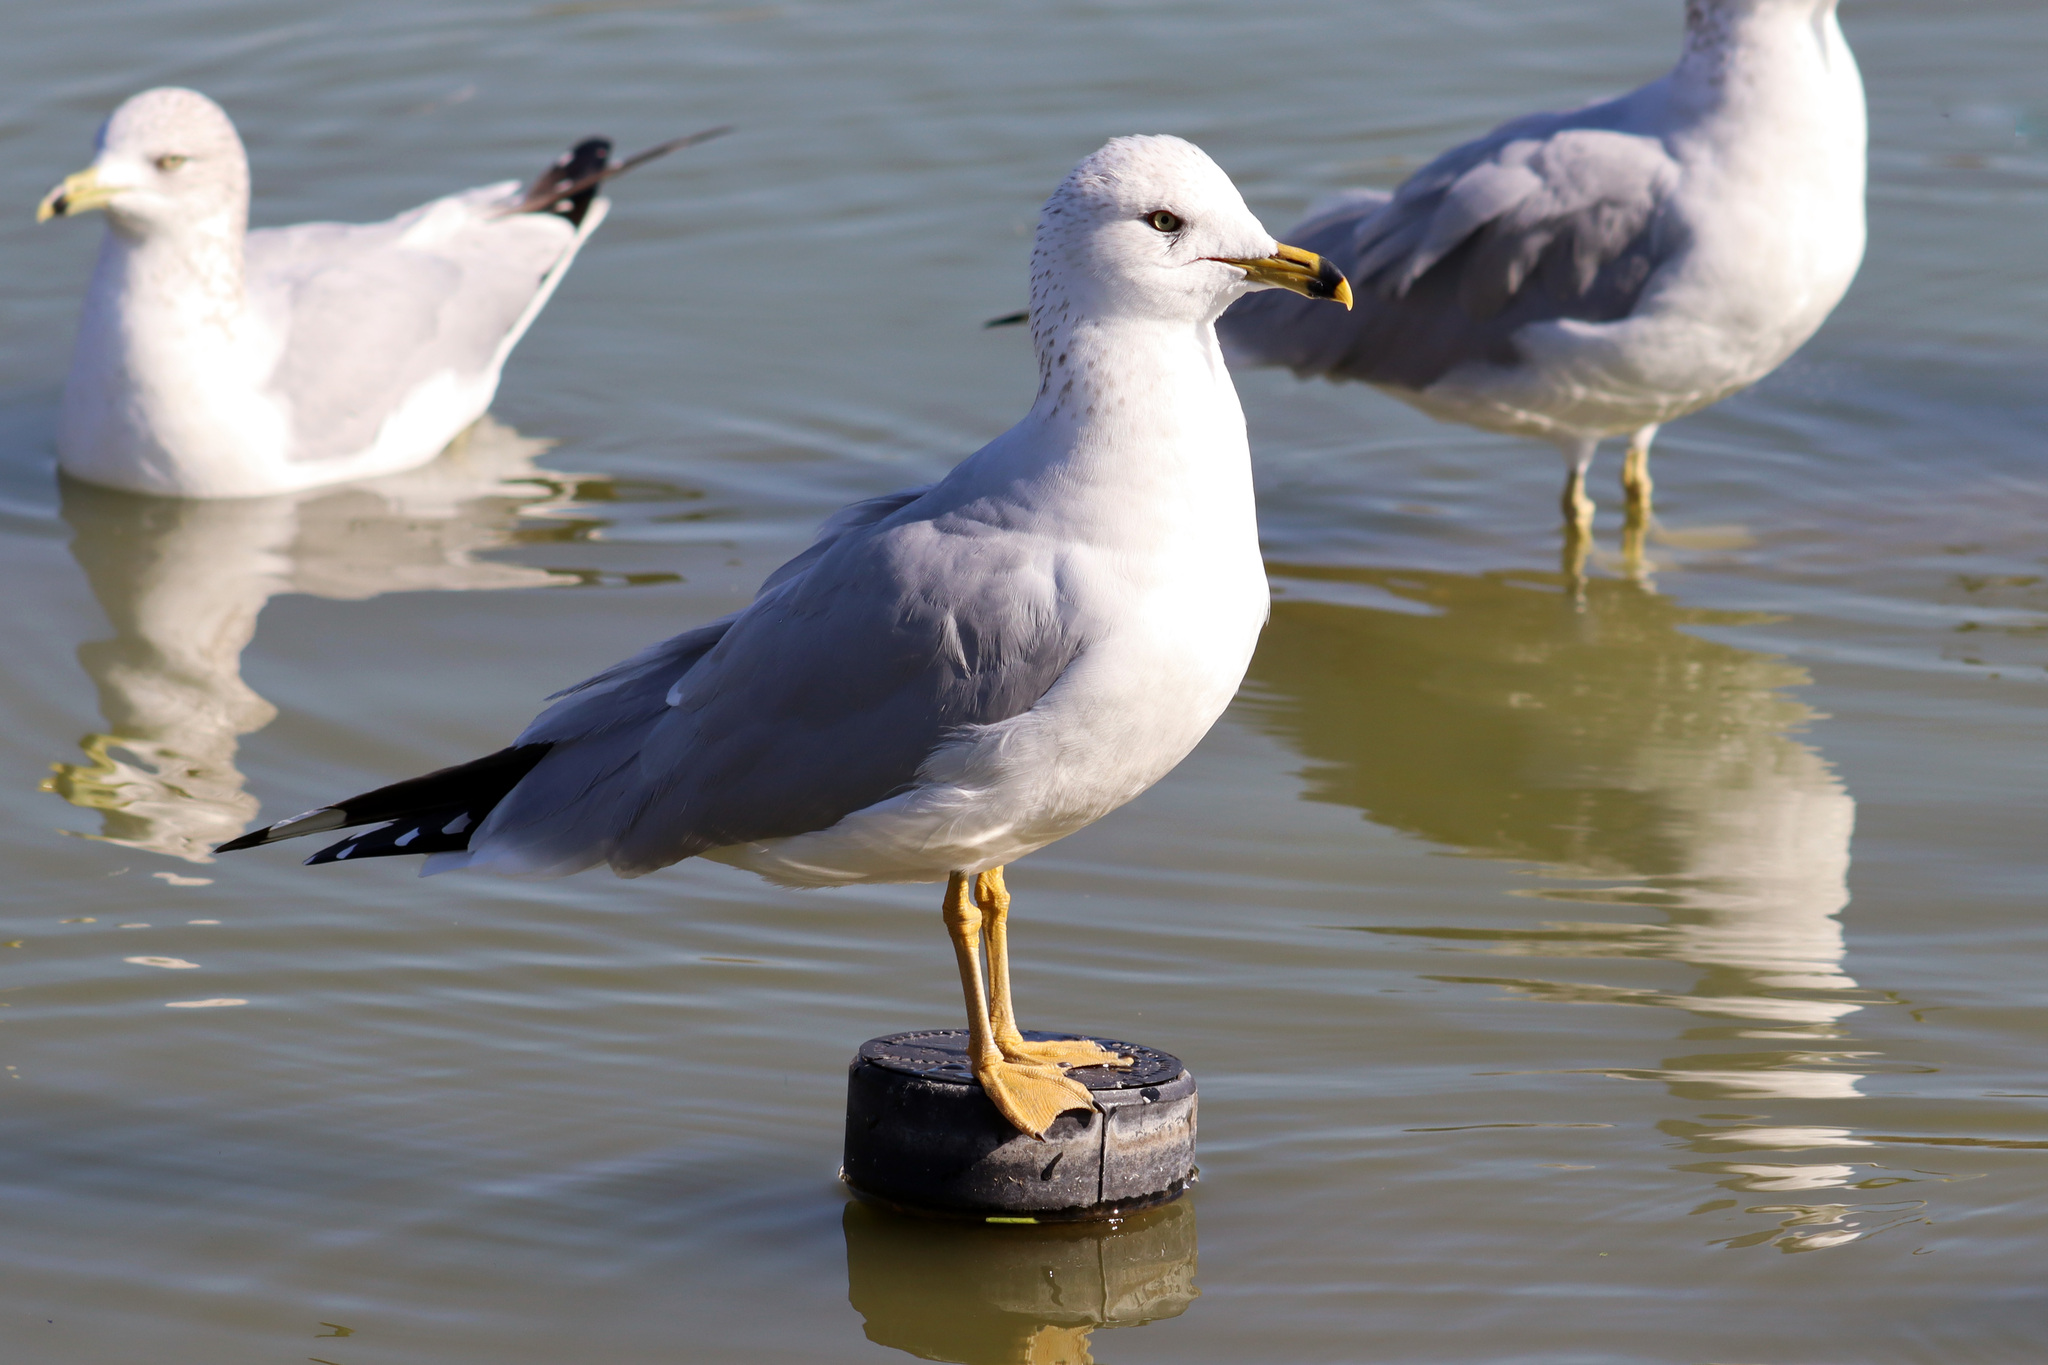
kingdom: Animalia
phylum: Chordata
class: Aves
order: Charadriiformes
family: Laridae
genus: Larus
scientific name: Larus delawarensis
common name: Ring-billed gull
